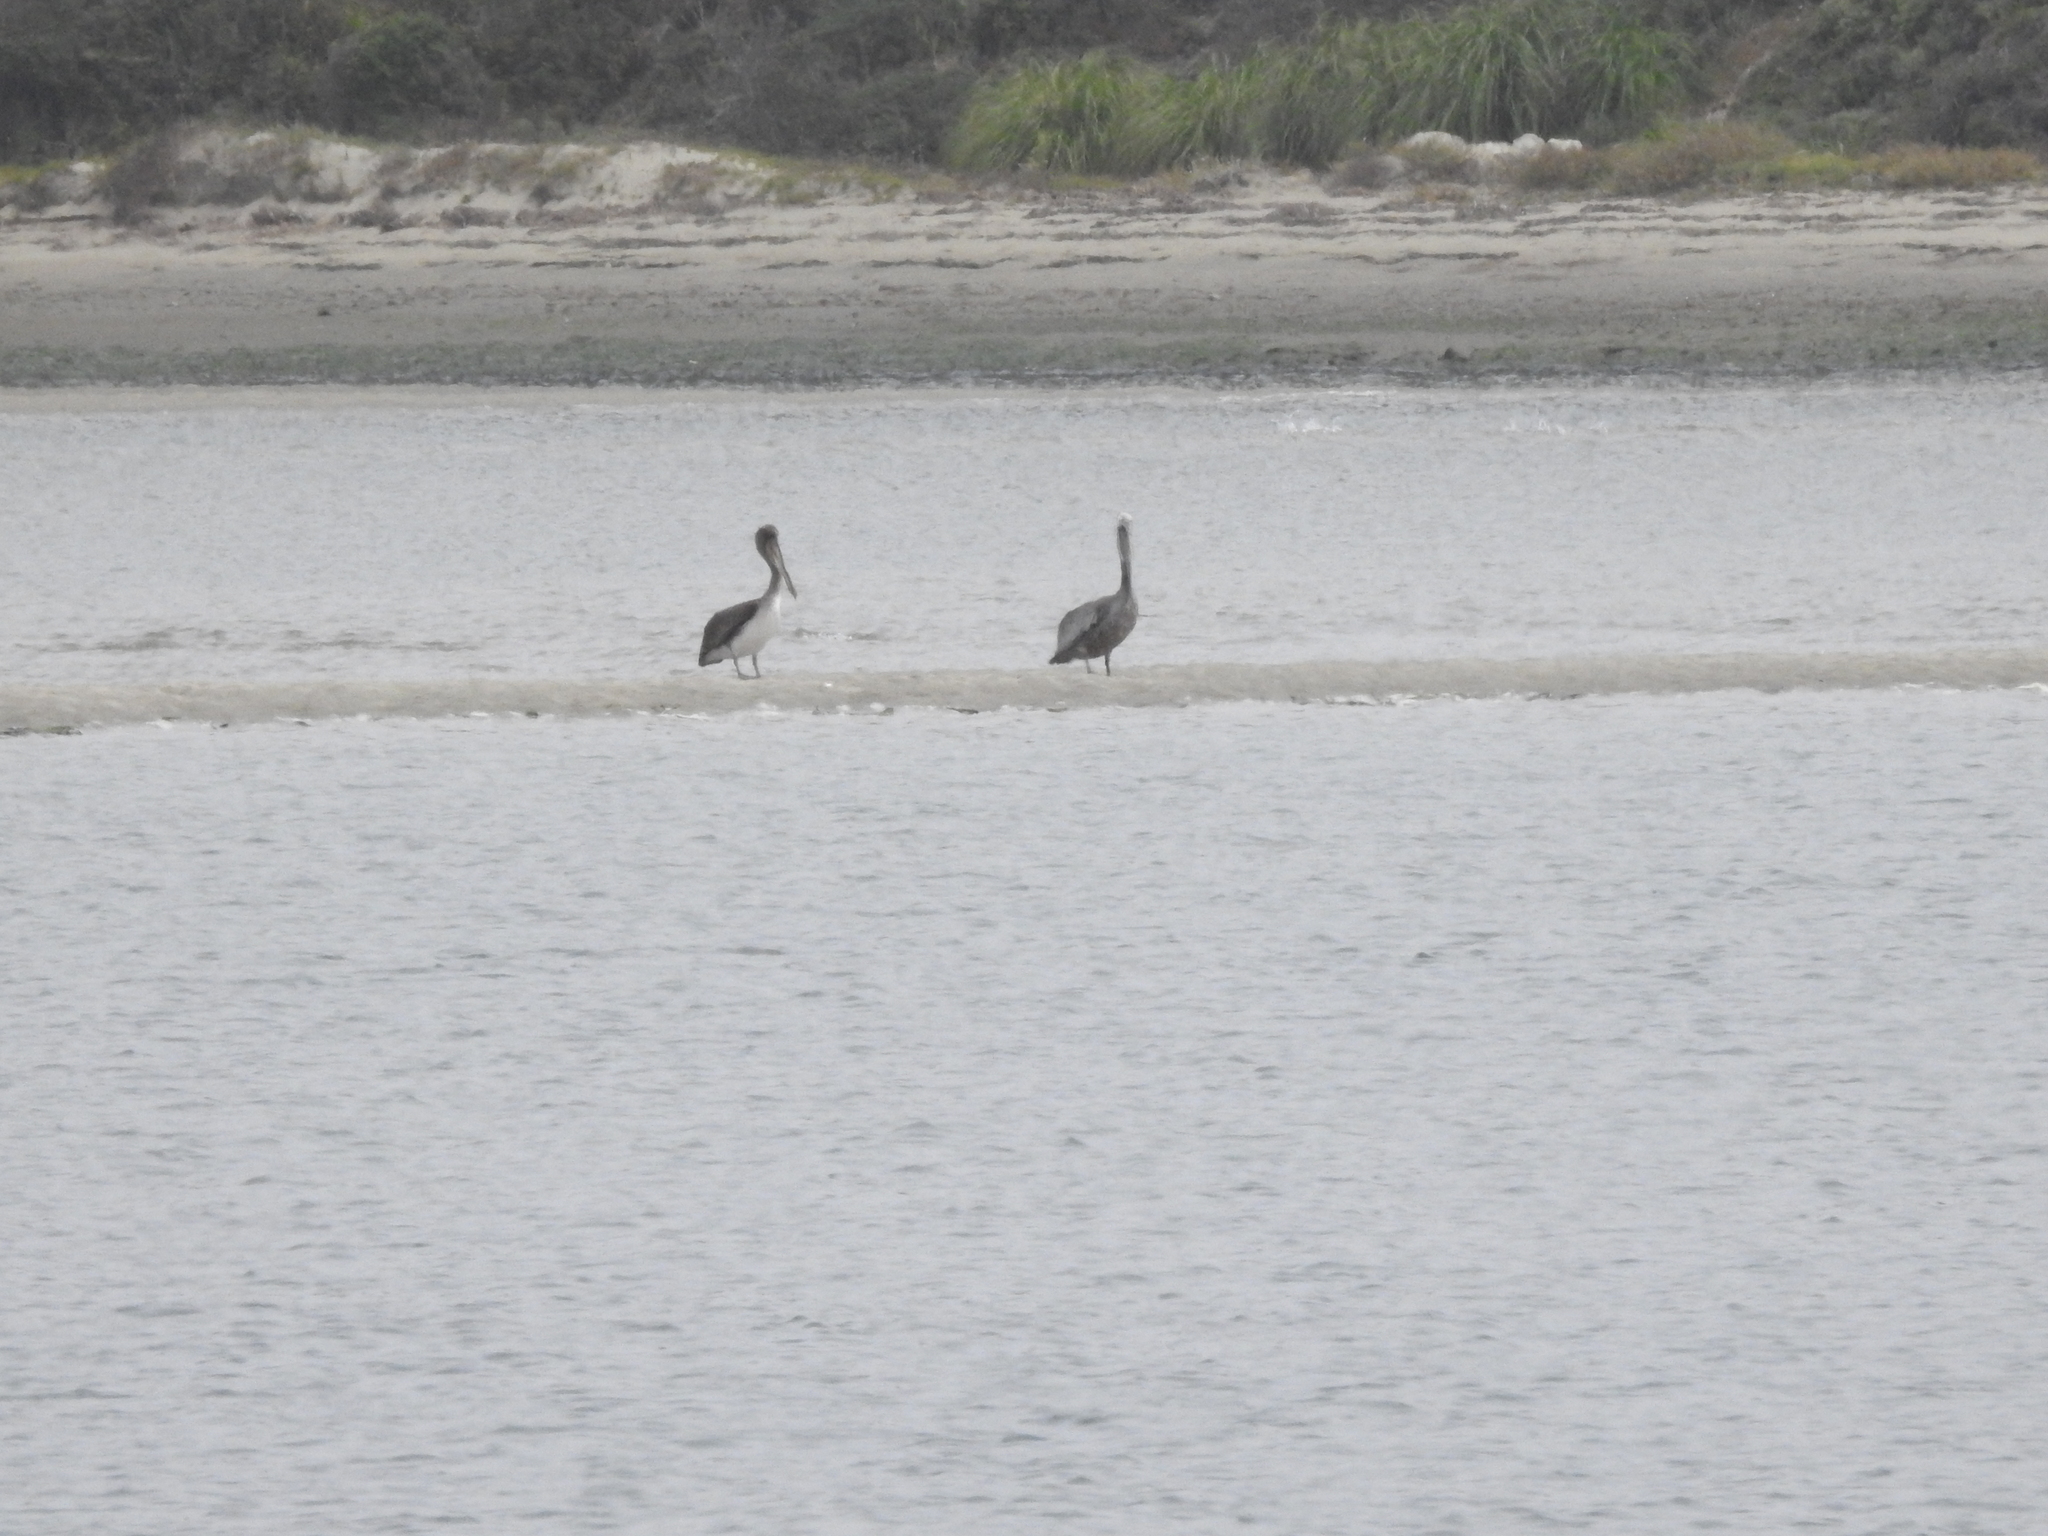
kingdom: Animalia
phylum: Chordata
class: Aves
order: Pelecaniformes
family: Pelecanidae
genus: Pelecanus
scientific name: Pelecanus occidentalis
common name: Brown pelican
